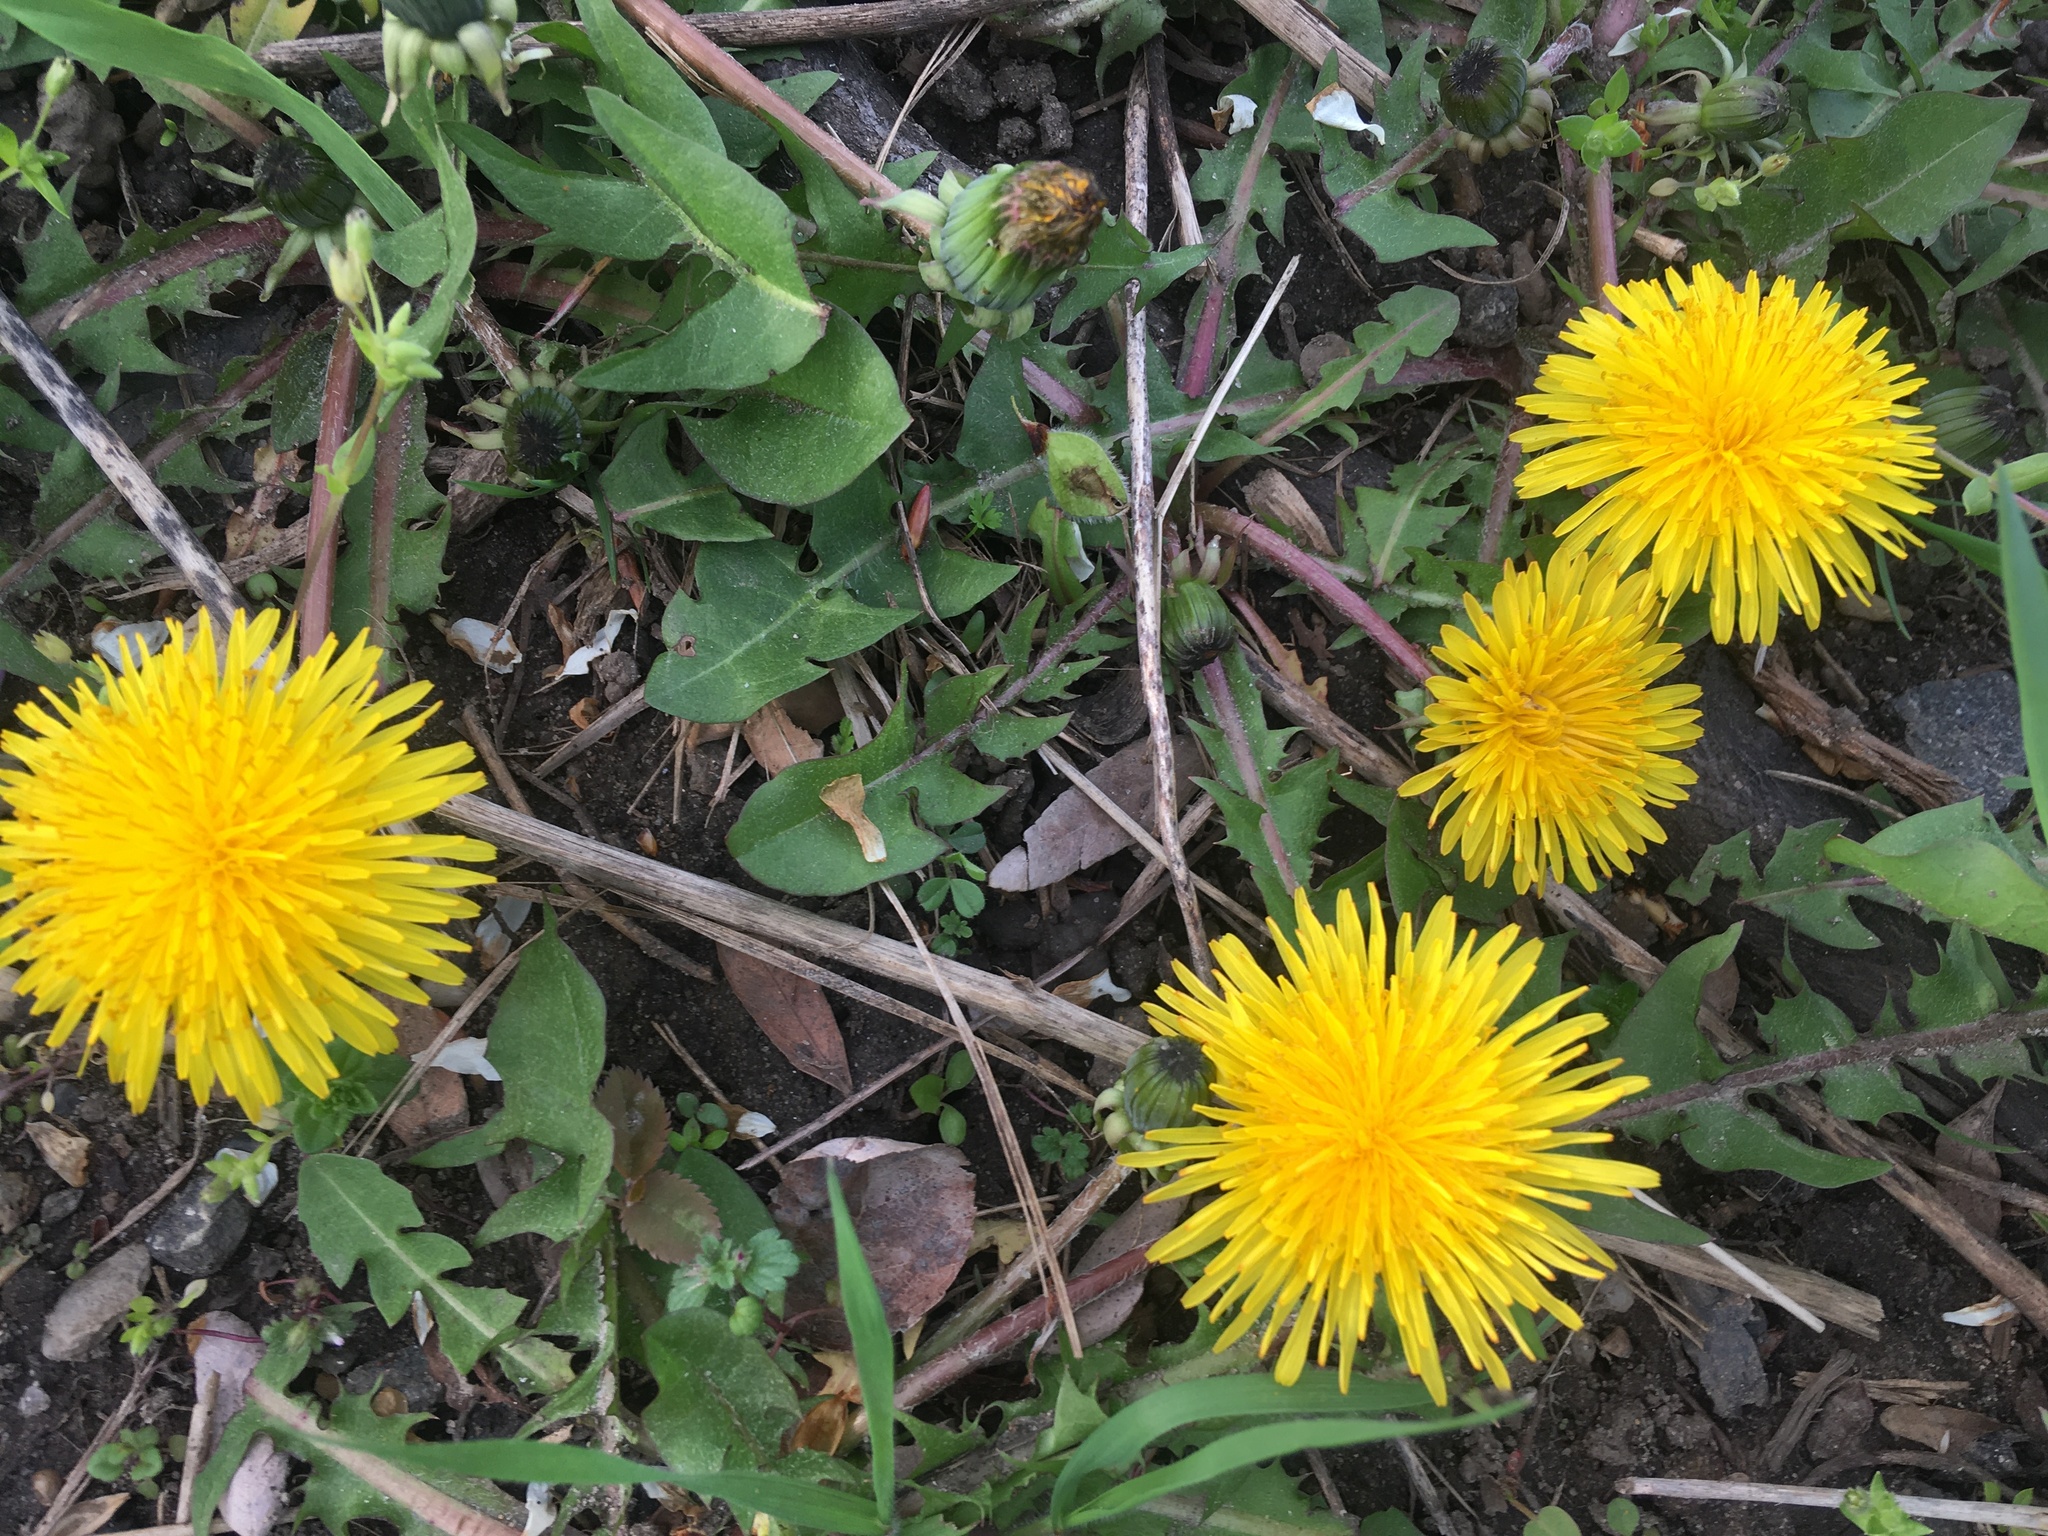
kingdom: Plantae
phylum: Tracheophyta
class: Magnoliopsida
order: Asterales
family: Asteraceae
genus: Taraxacum
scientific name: Taraxacum officinale
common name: Common dandelion
